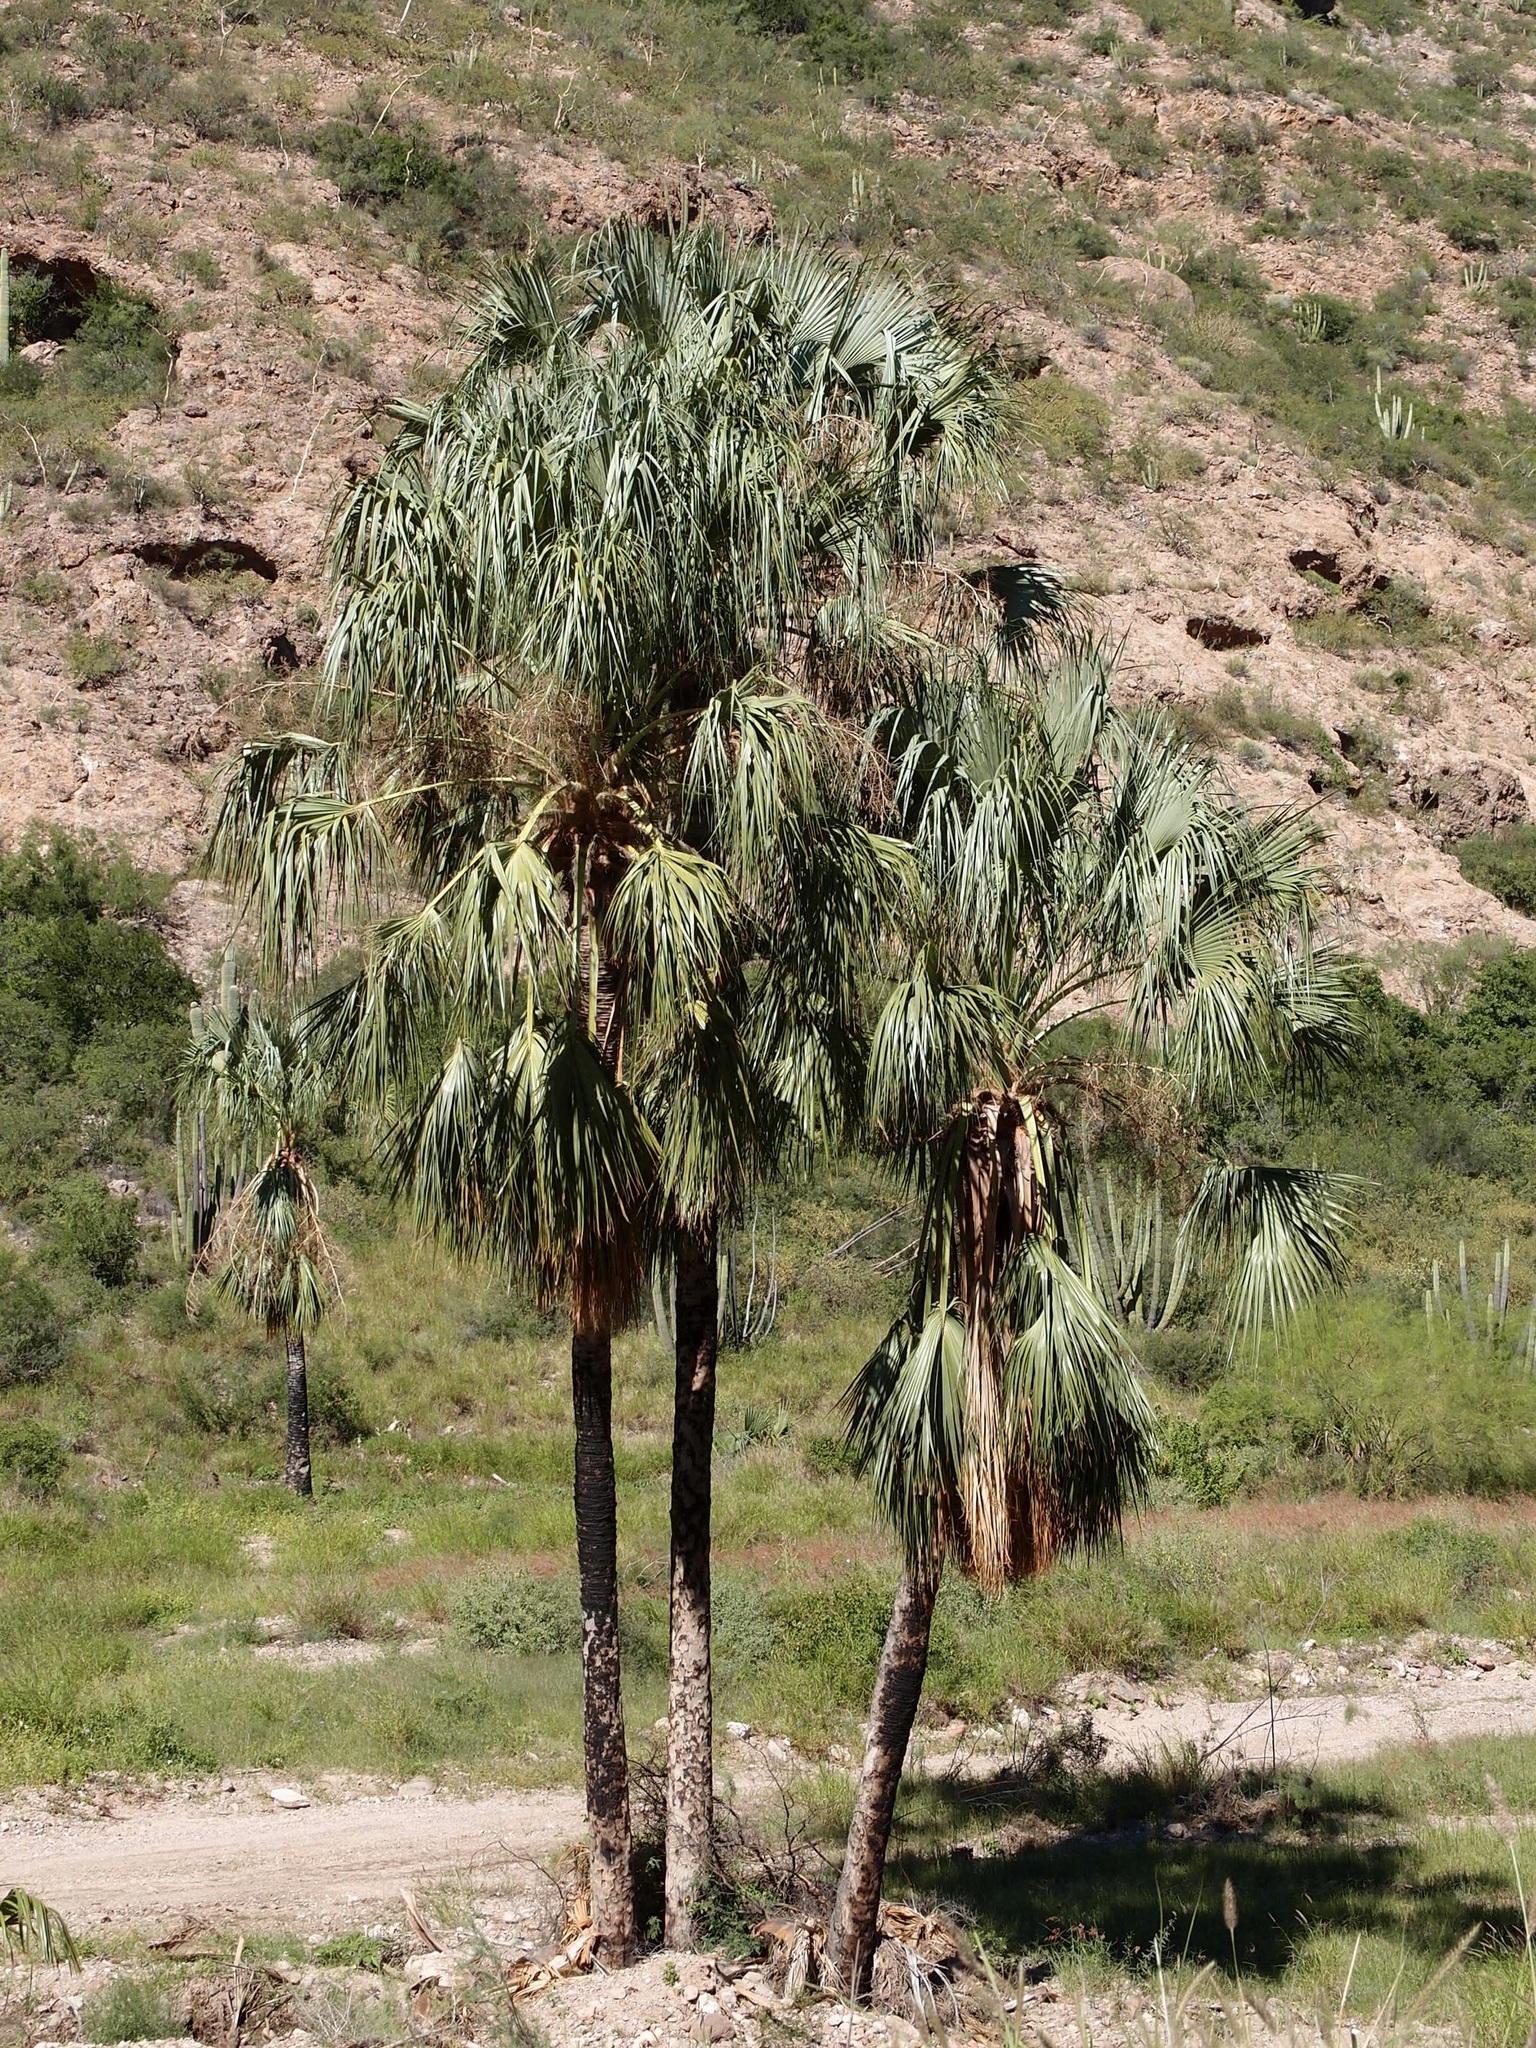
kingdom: Plantae
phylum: Tracheophyta
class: Liliopsida
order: Arecales
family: Arecaceae
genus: Sabal
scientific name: Sabal uresana
